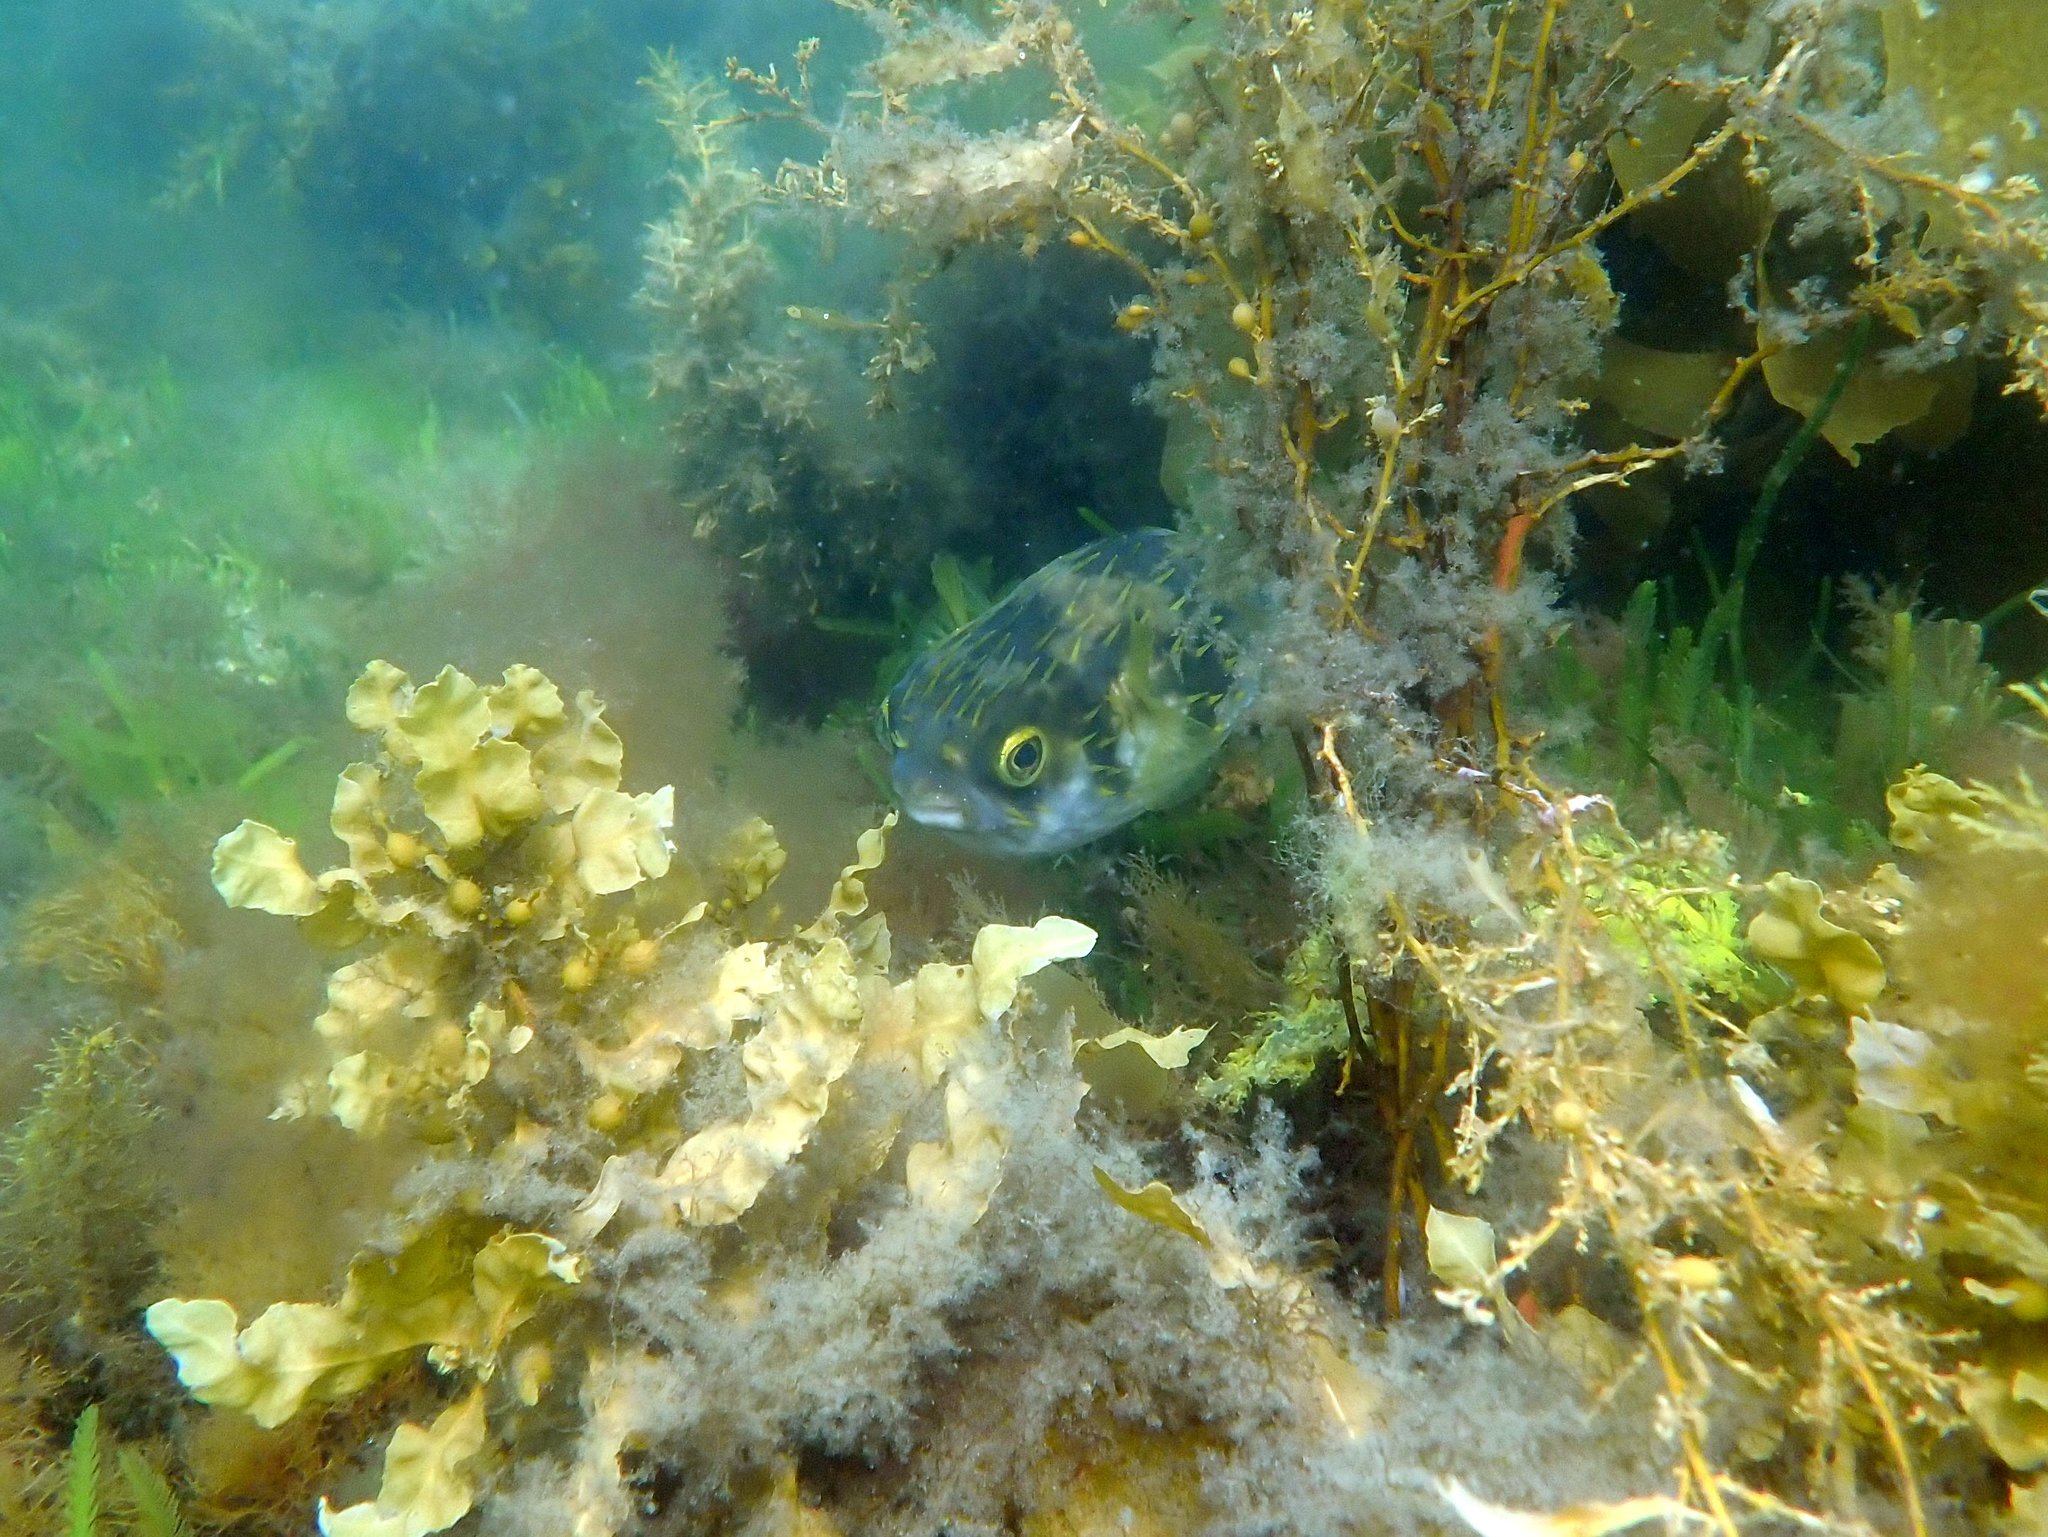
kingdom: Animalia
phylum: Chordata
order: Tetraodontiformes
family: Diodontidae
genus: Diodon
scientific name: Diodon nicthemerus
